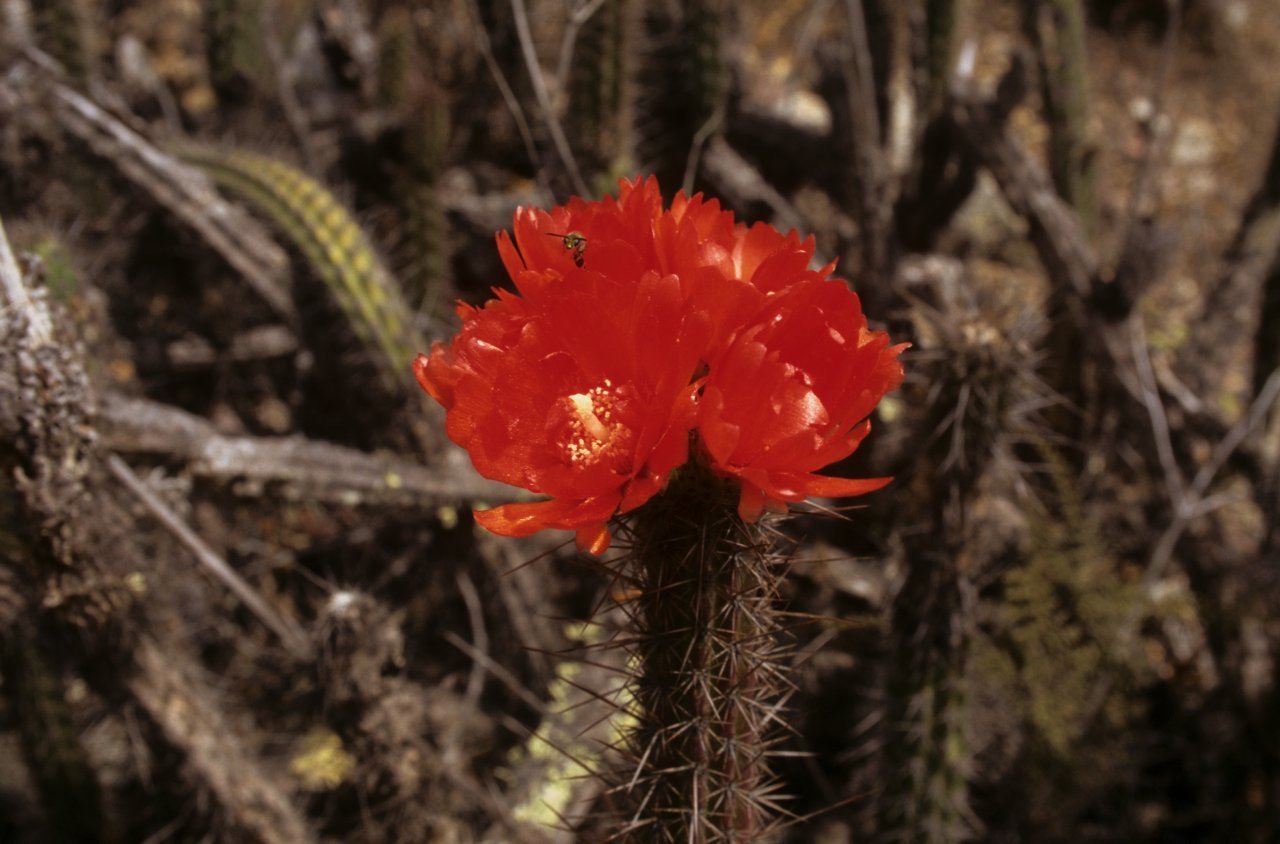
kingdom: Plantae
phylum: Tracheophyta
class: Magnoliopsida
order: Caryophyllales
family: Cactaceae
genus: Corryocactus
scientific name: Corryocactus erectus
